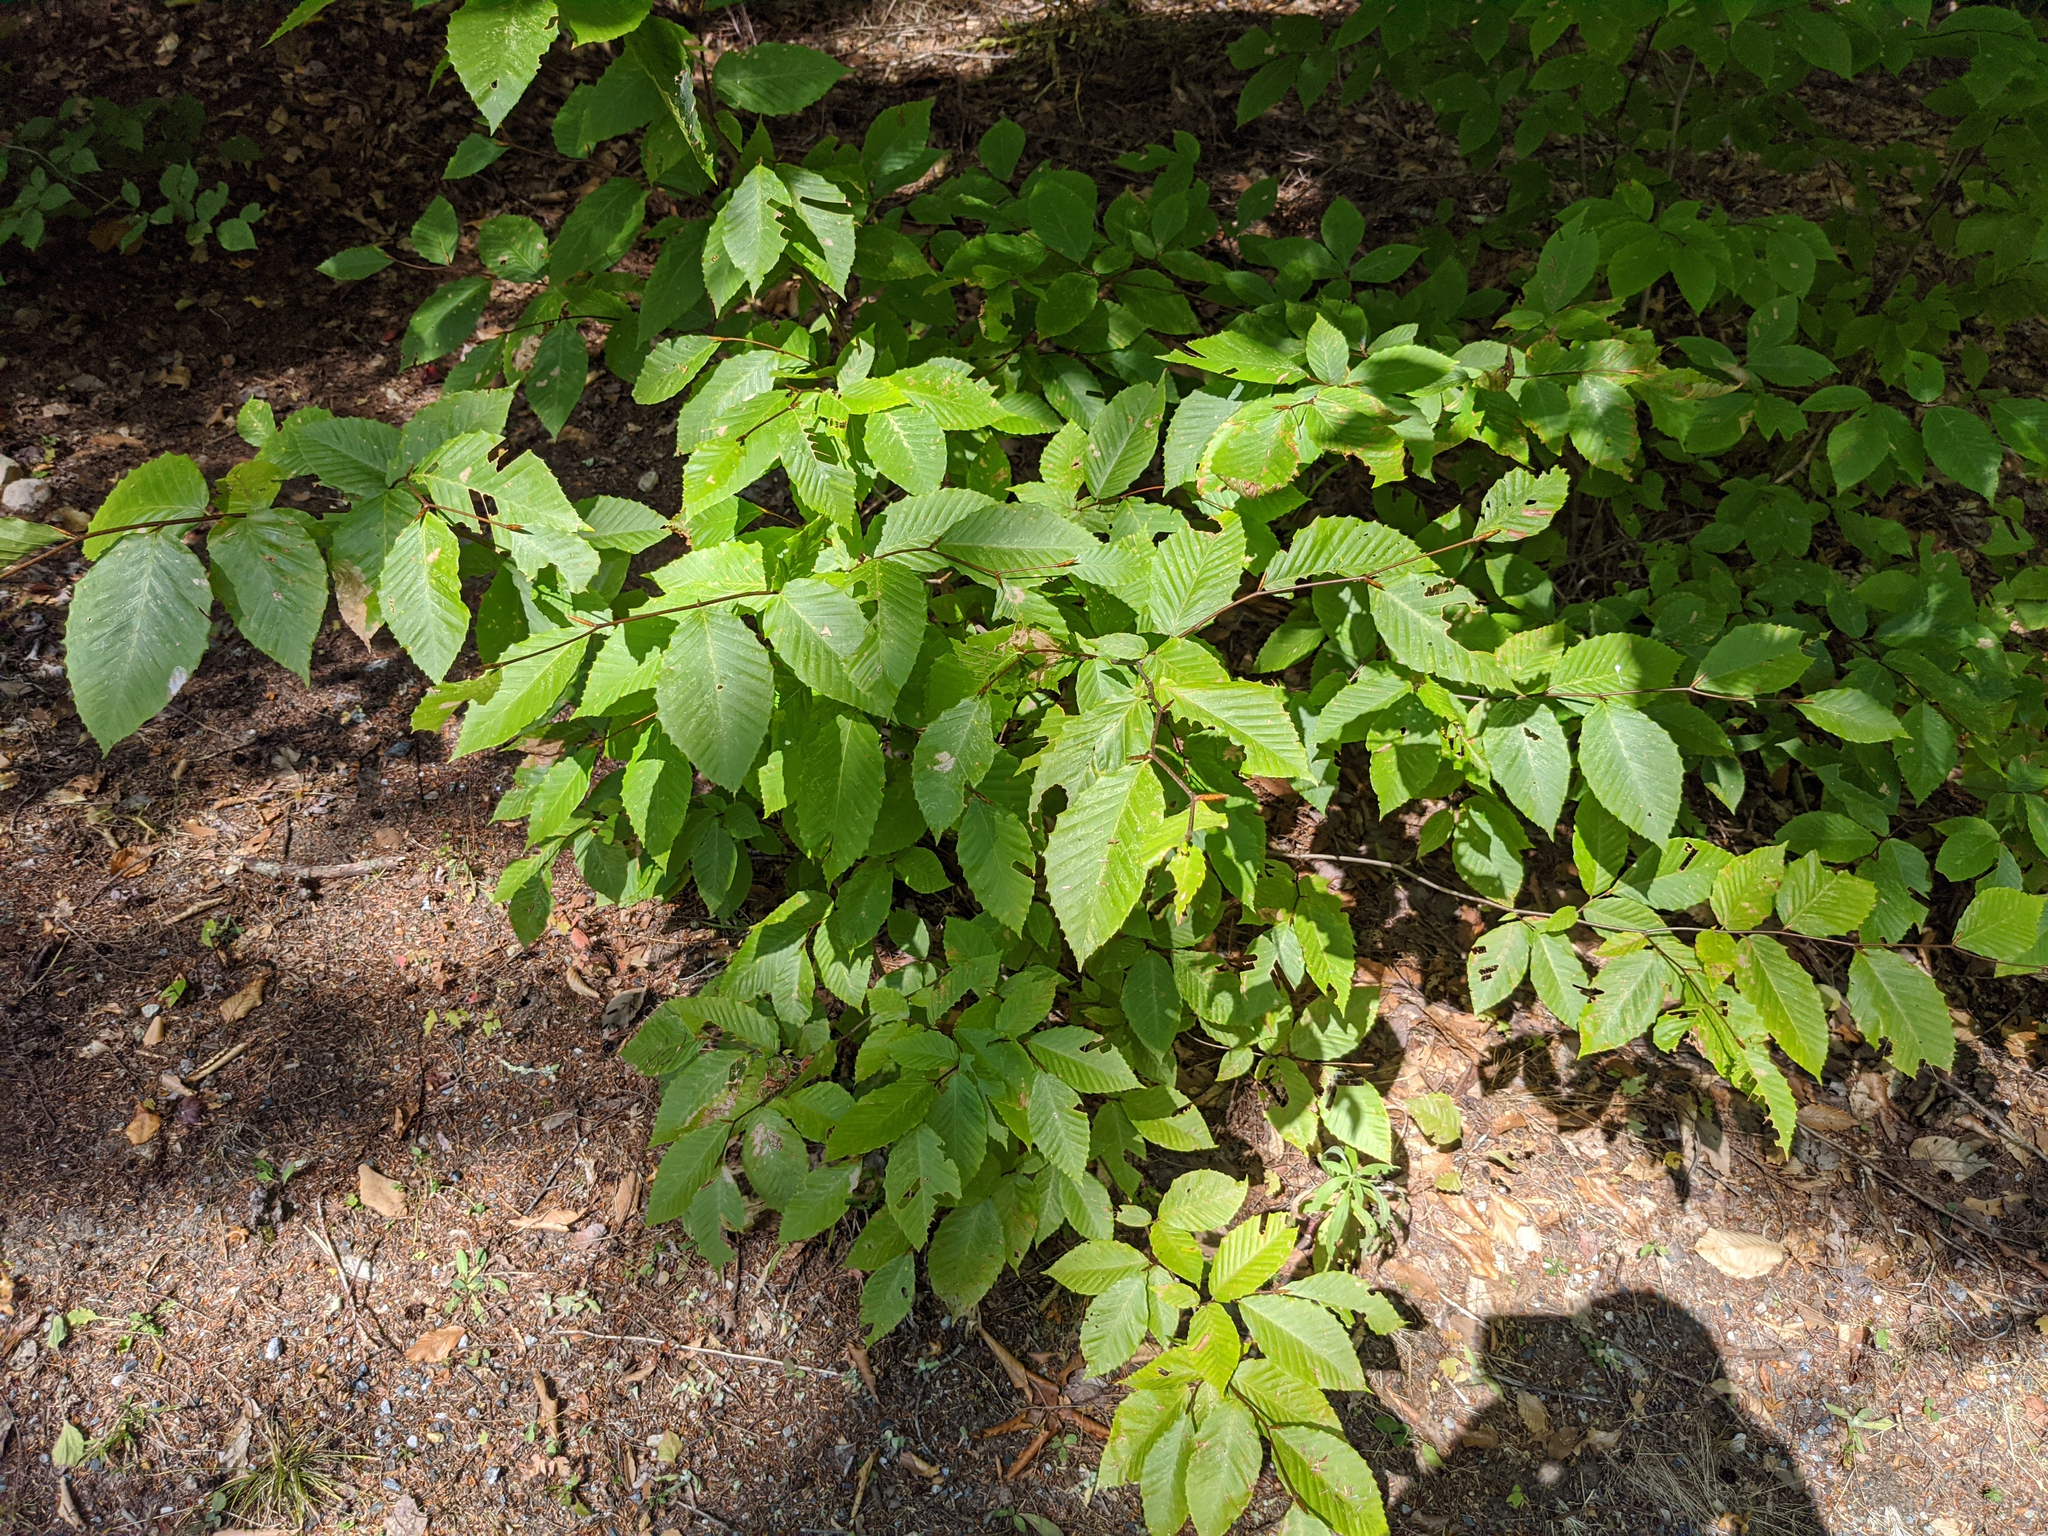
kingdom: Plantae
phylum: Tracheophyta
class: Magnoliopsida
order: Fagales
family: Fagaceae
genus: Fagus
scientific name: Fagus grandifolia
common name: American beech
